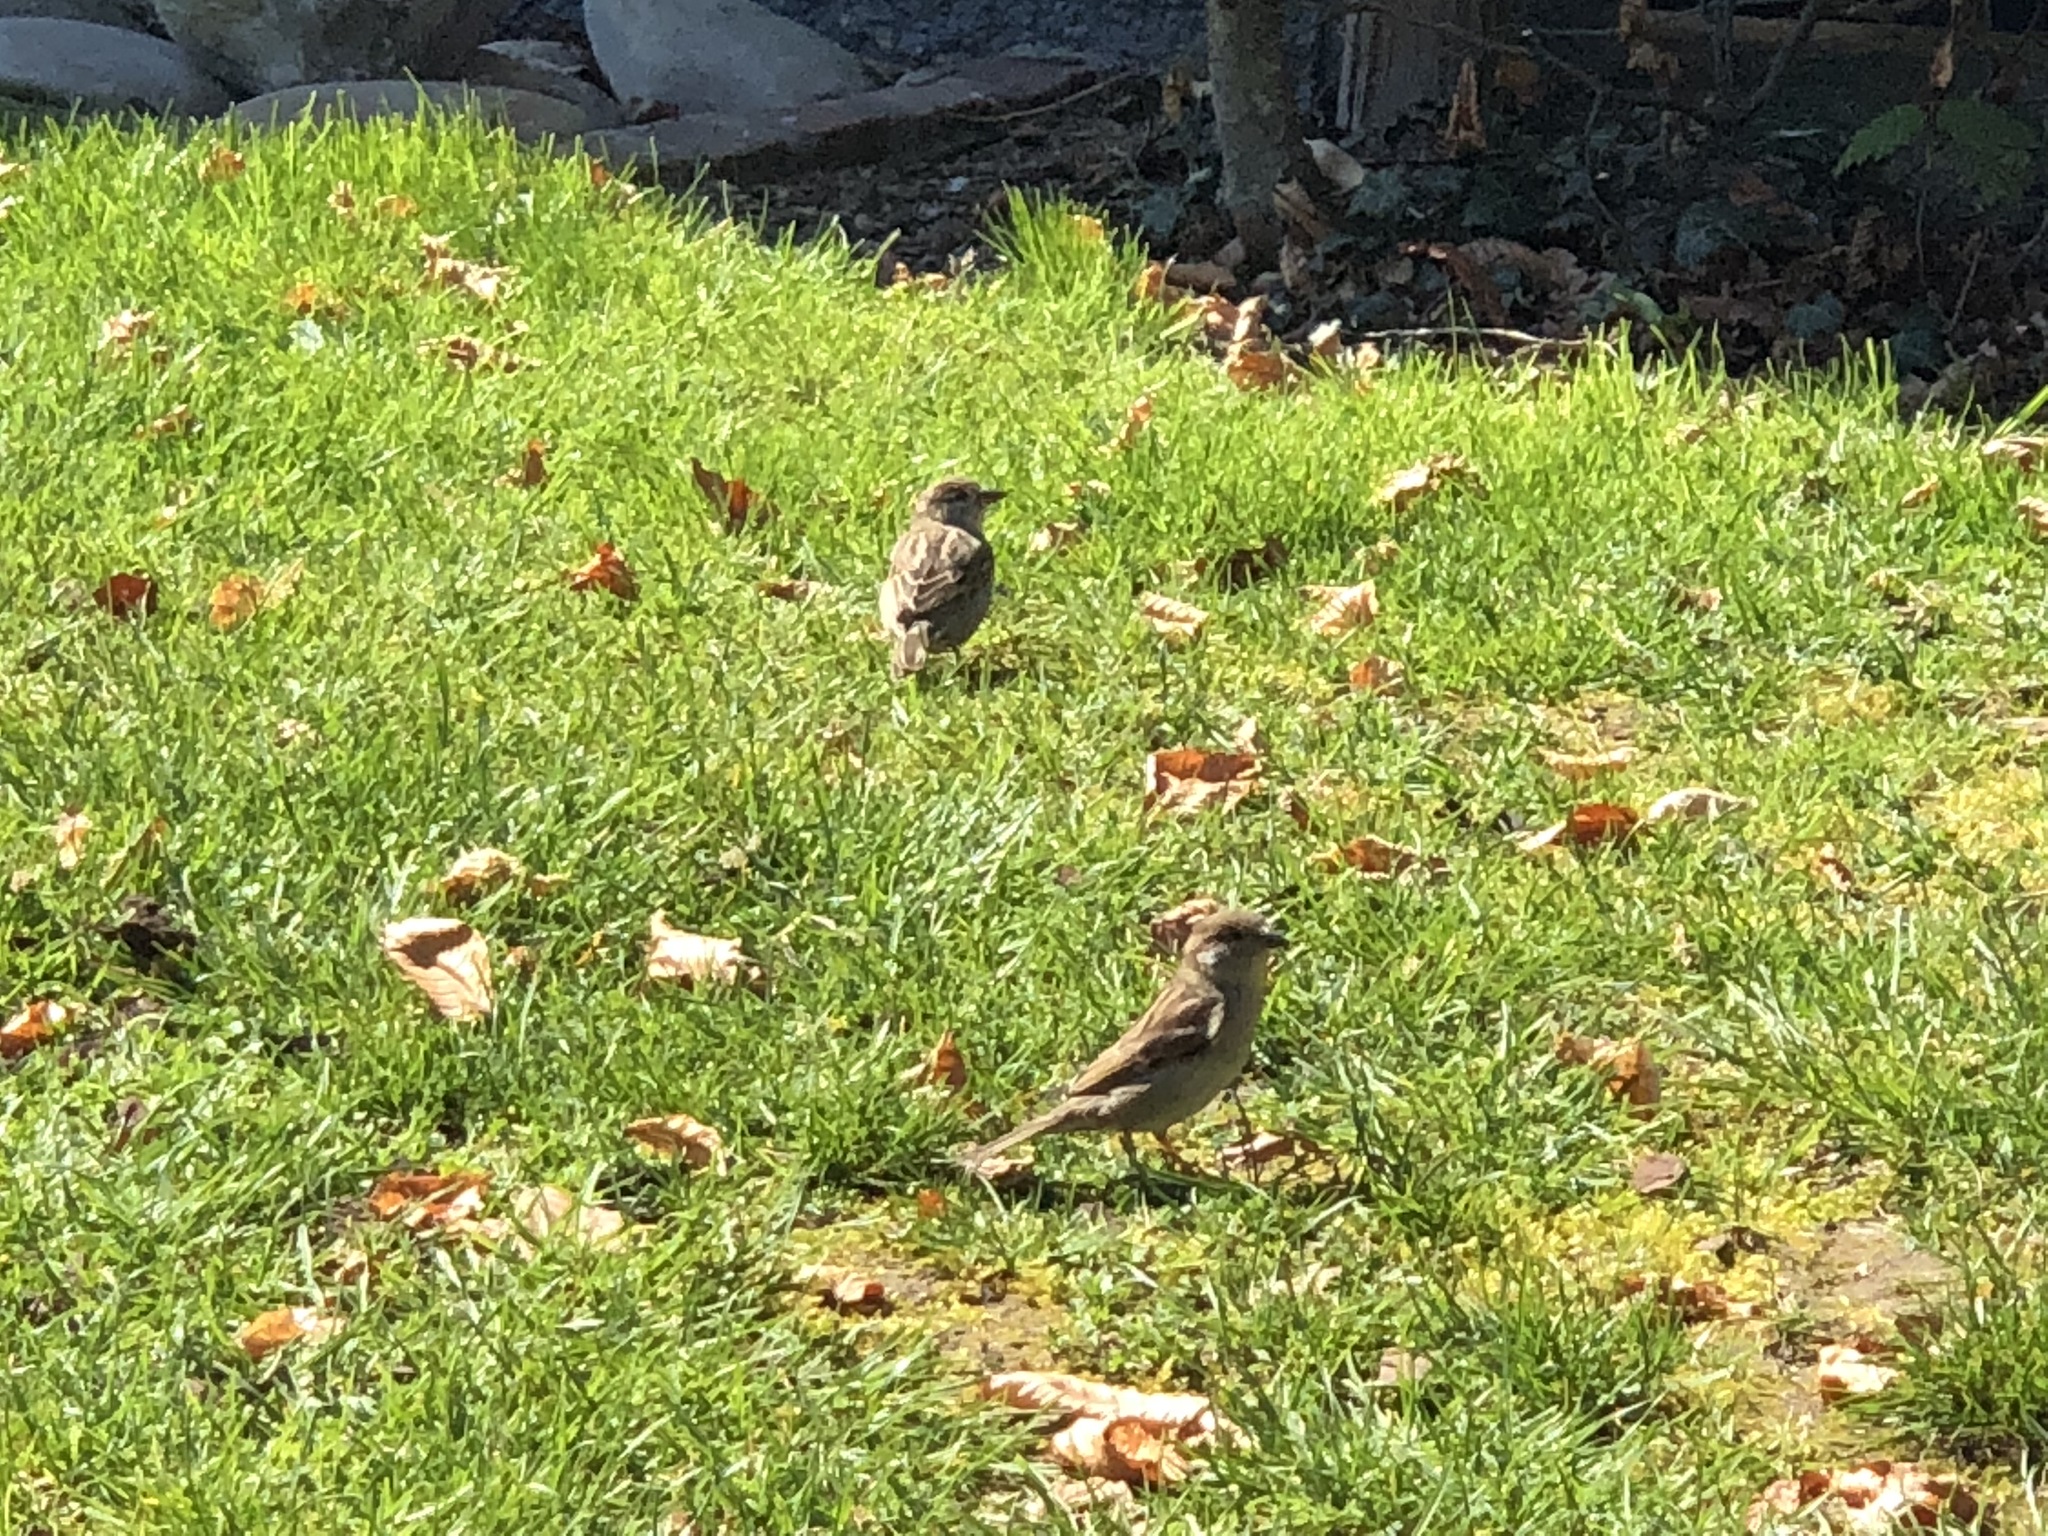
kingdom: Animalia
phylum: Chordata
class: Aves
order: Passeriformes
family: Passeridae
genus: Passer
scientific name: Passer domesticus
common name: House sparrow
